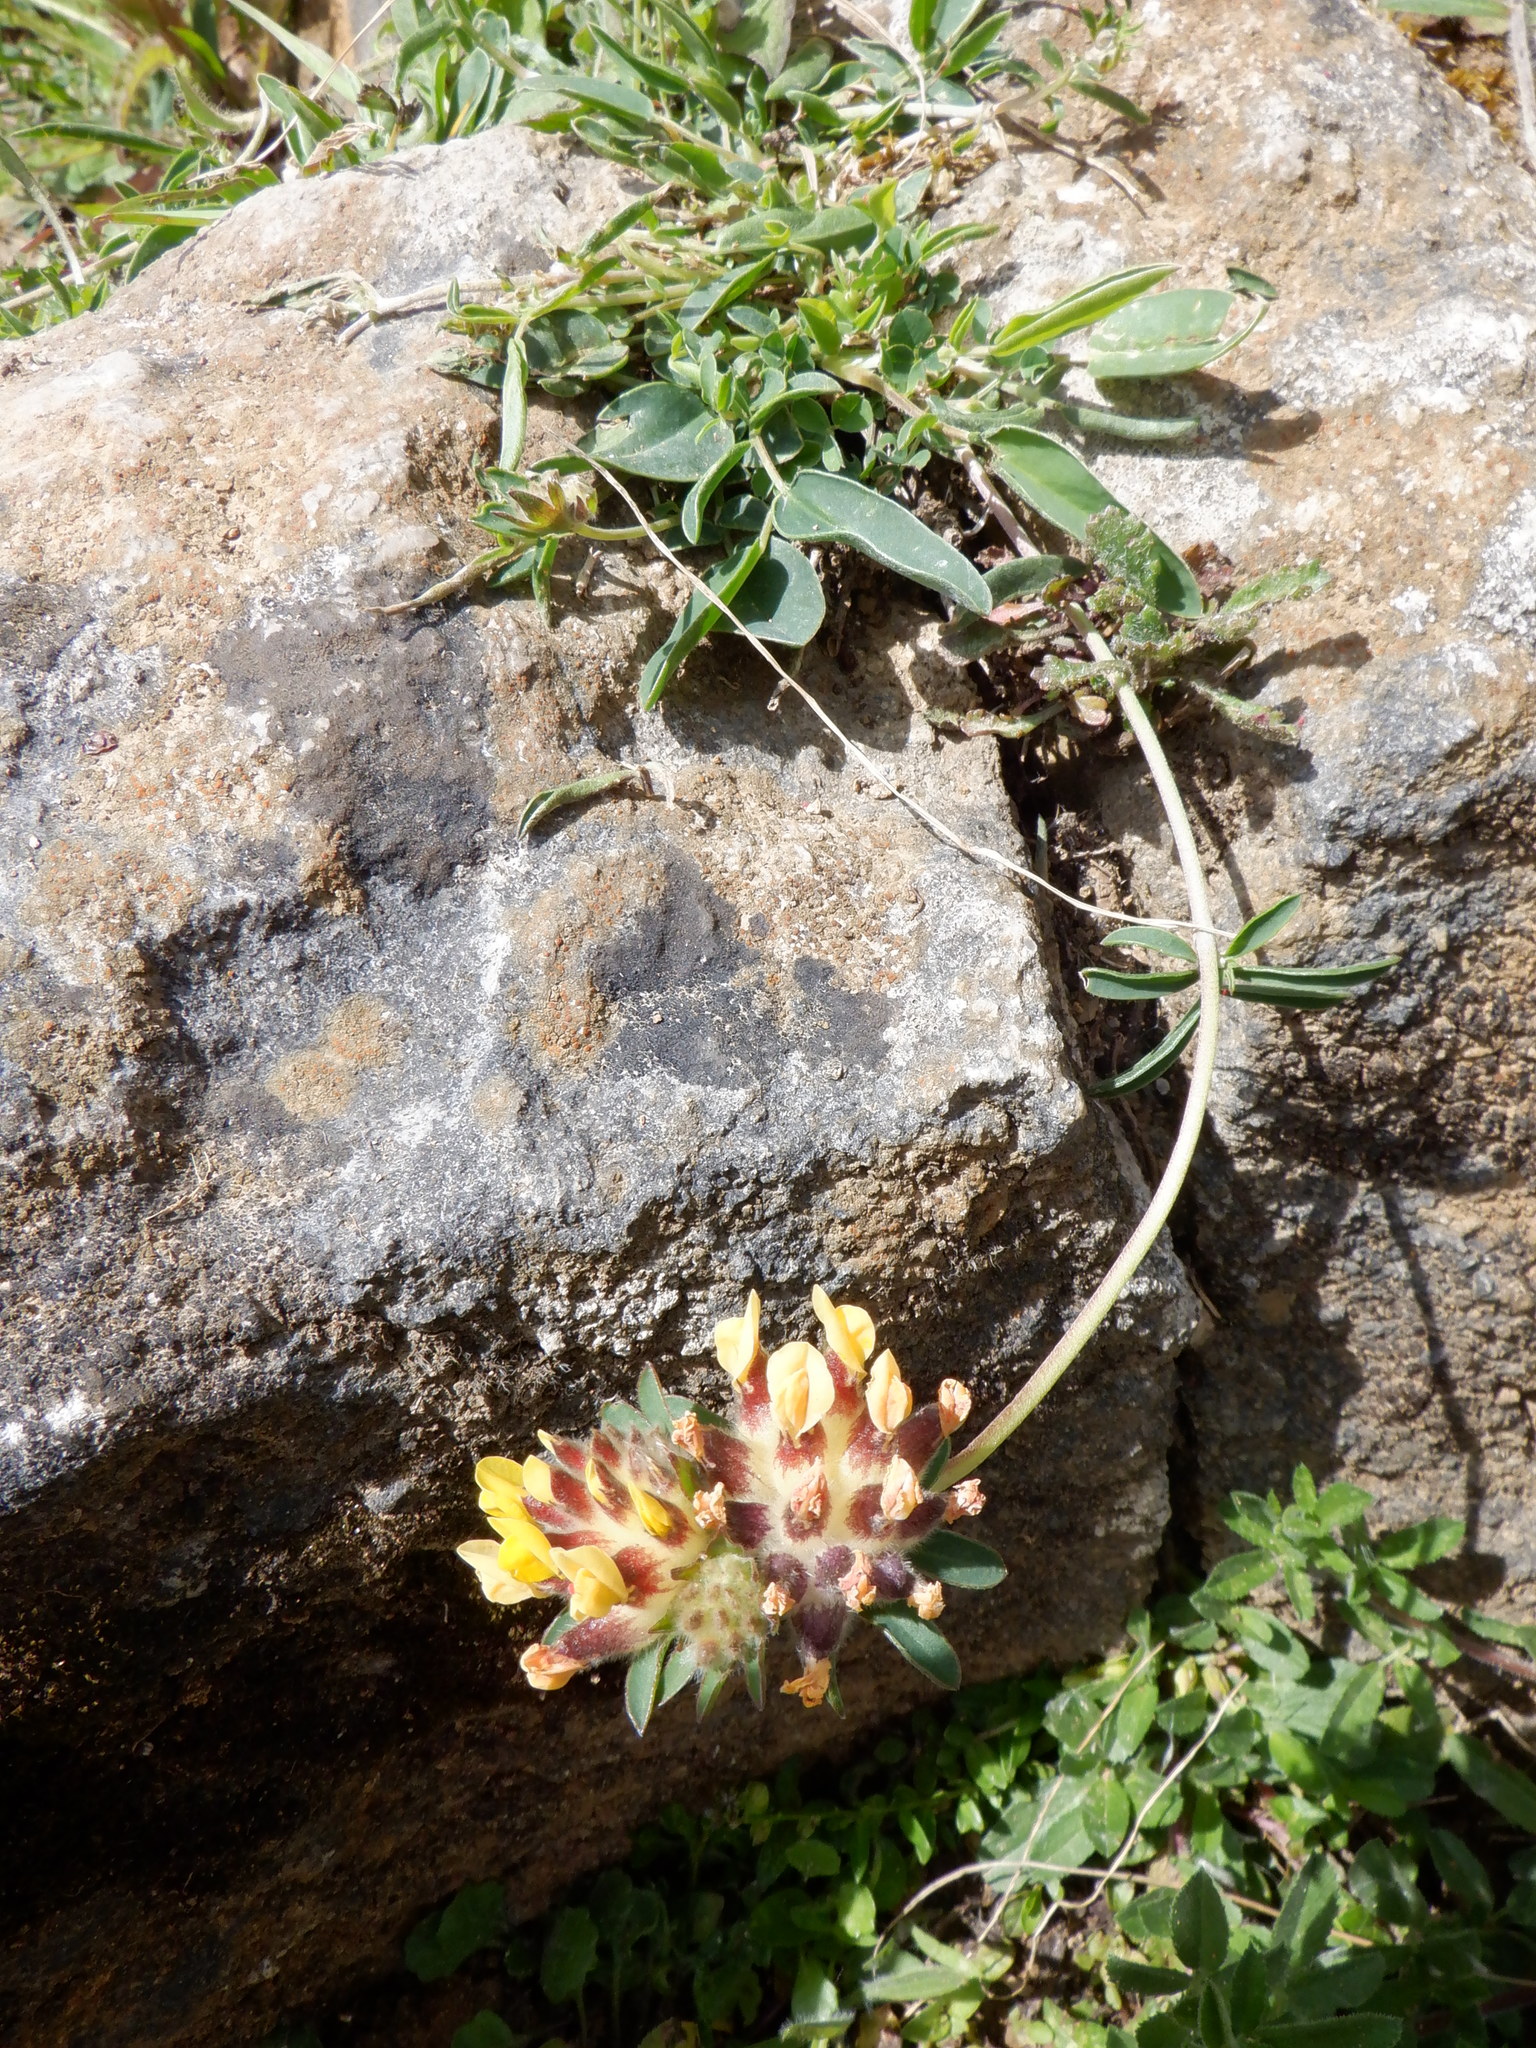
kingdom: Plantae
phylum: Tracheophyta
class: Magnoliopsida
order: Fabales
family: Fabaceae
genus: Anthyllis
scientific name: Anthyllis vulneraria
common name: Kidney vetch
